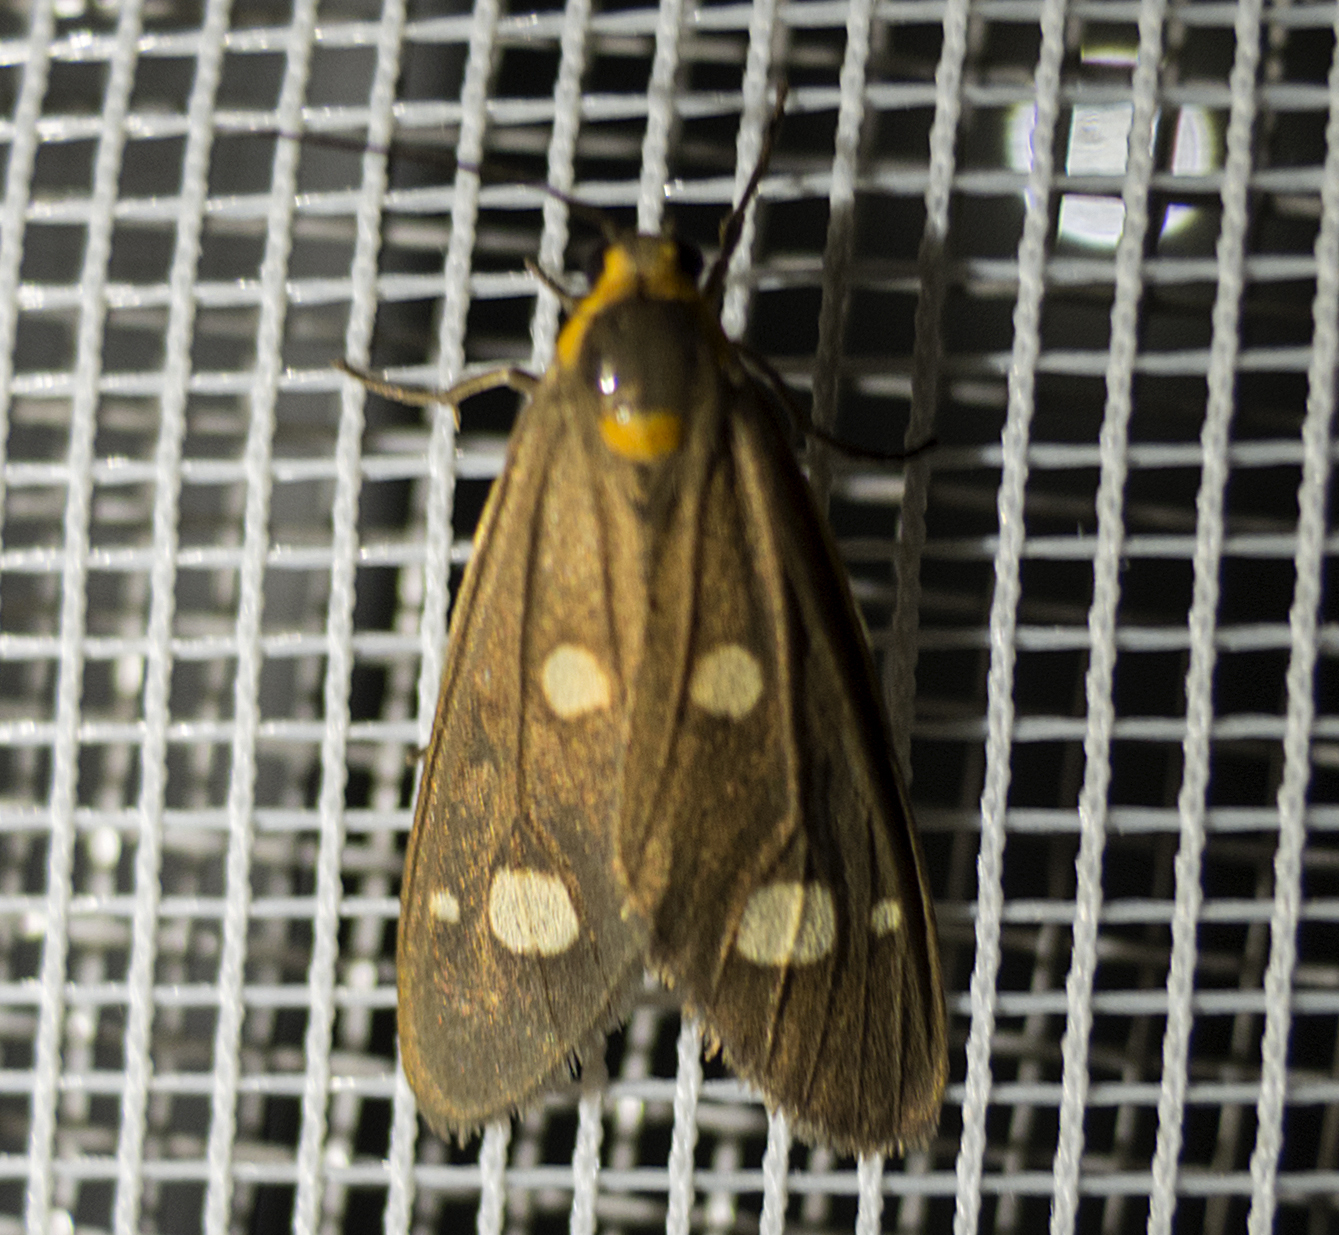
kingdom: Animalia
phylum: Arthropoda
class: Insecta
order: Lepidoptera
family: Erebidae
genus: Dysauxes
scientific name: Dysauxes punctata
